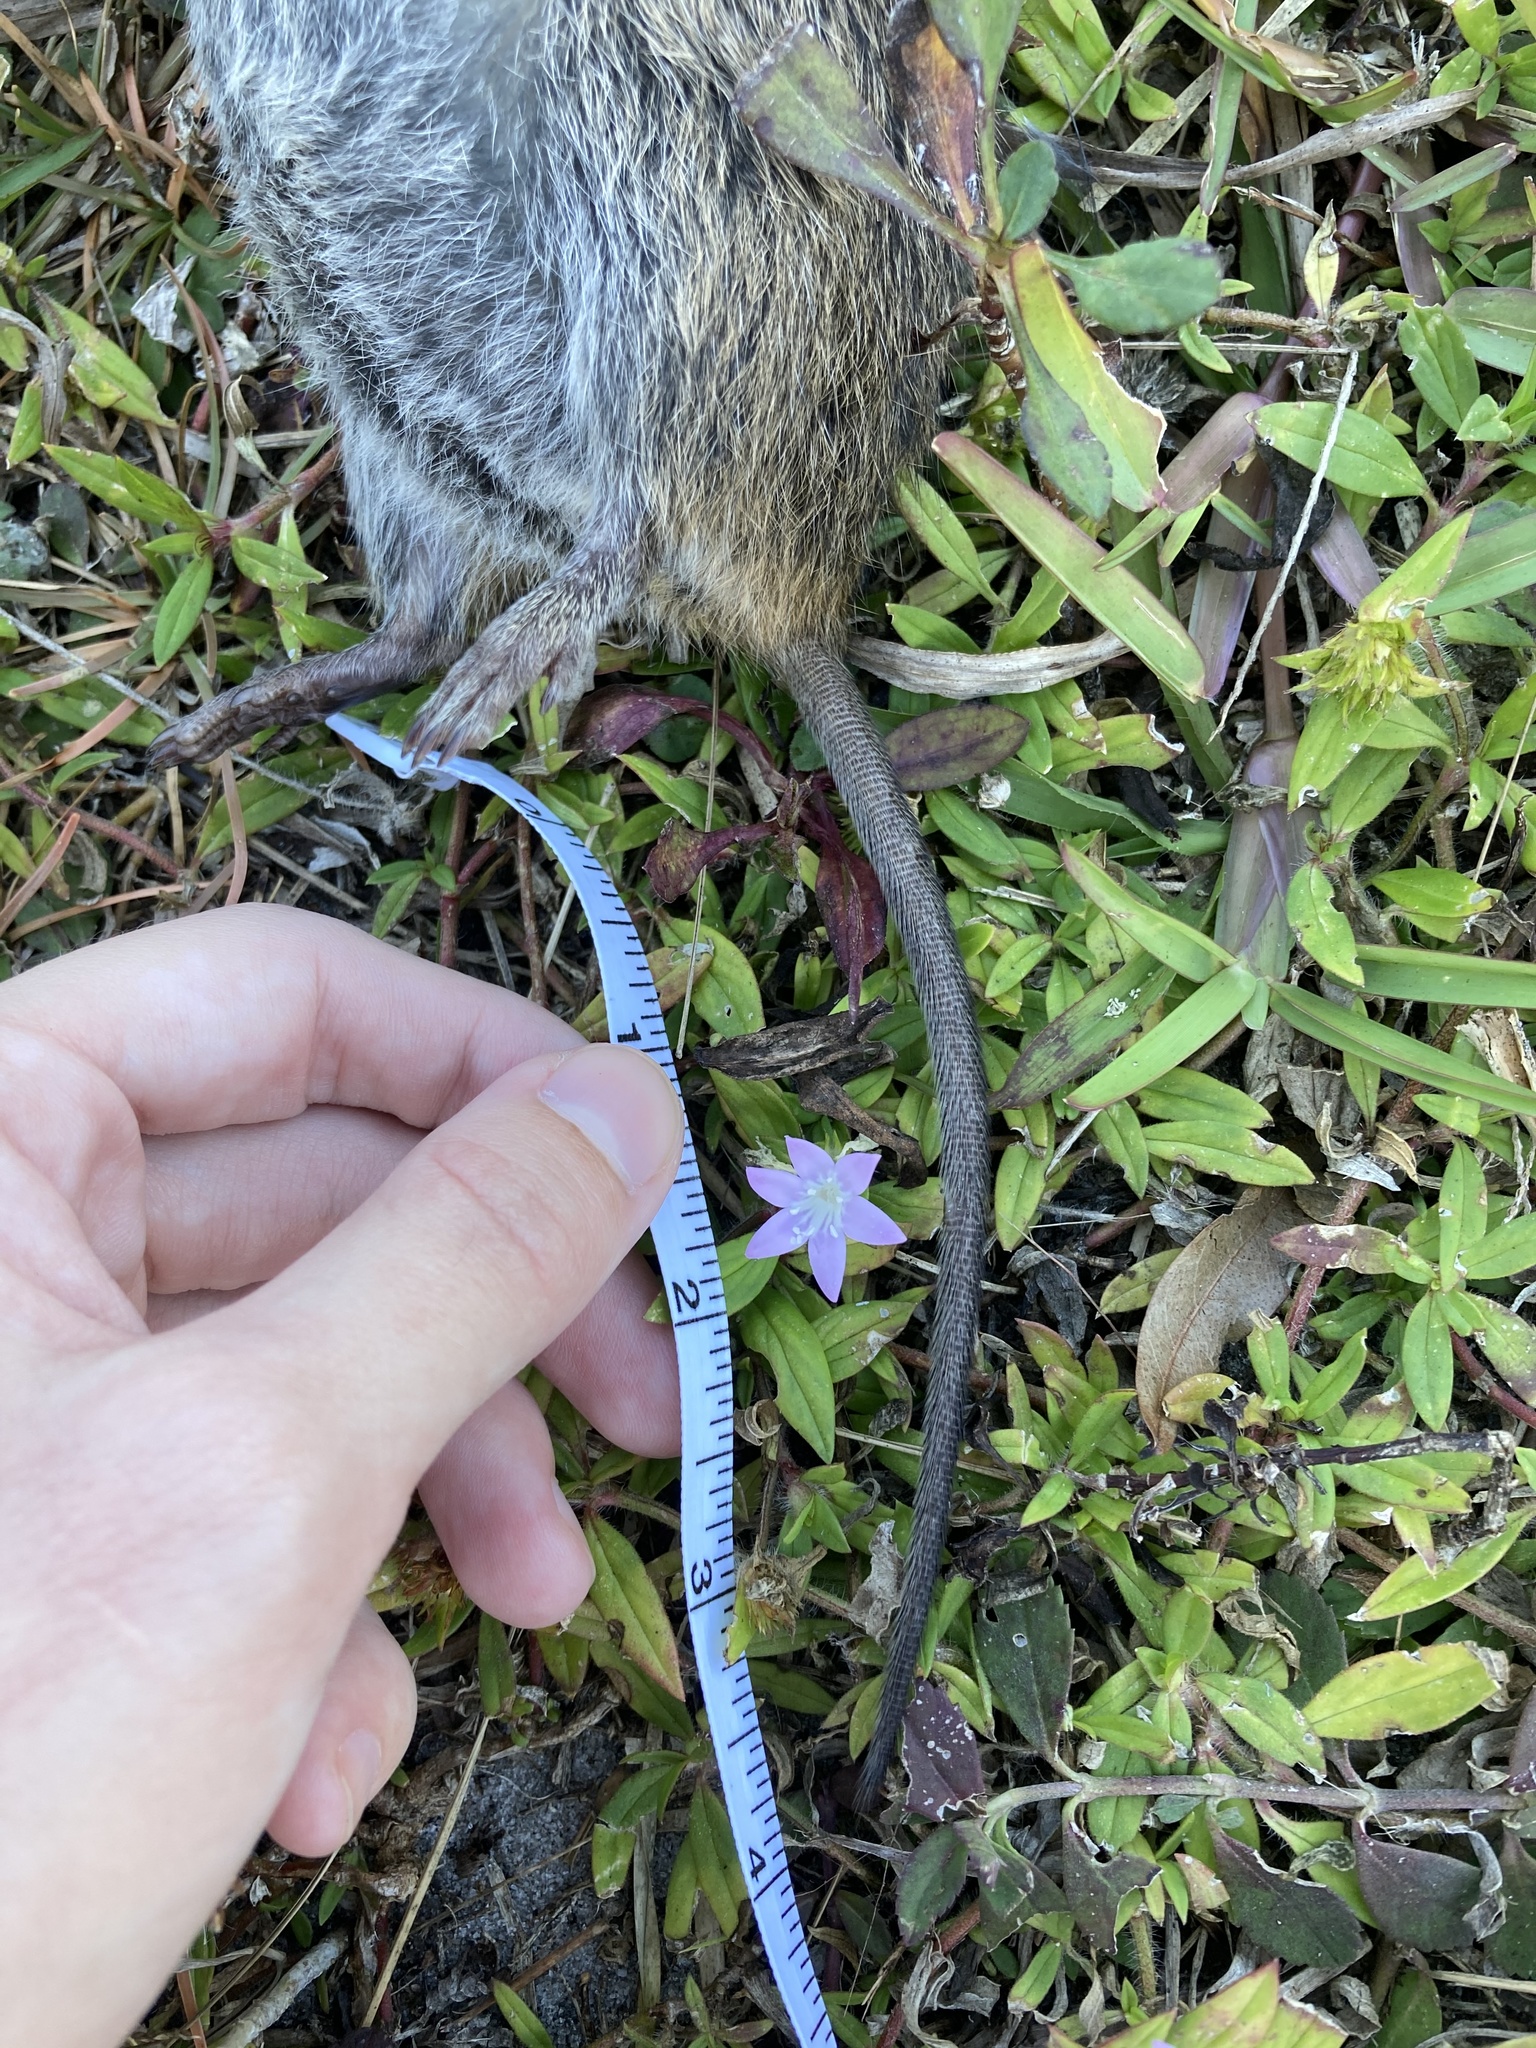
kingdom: Animalia
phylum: Chordata
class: Mammalia
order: Rodentia
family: Cricetidae
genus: Sigmodon
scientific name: Sigmodon hispidus
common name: Hispid cotton rat
